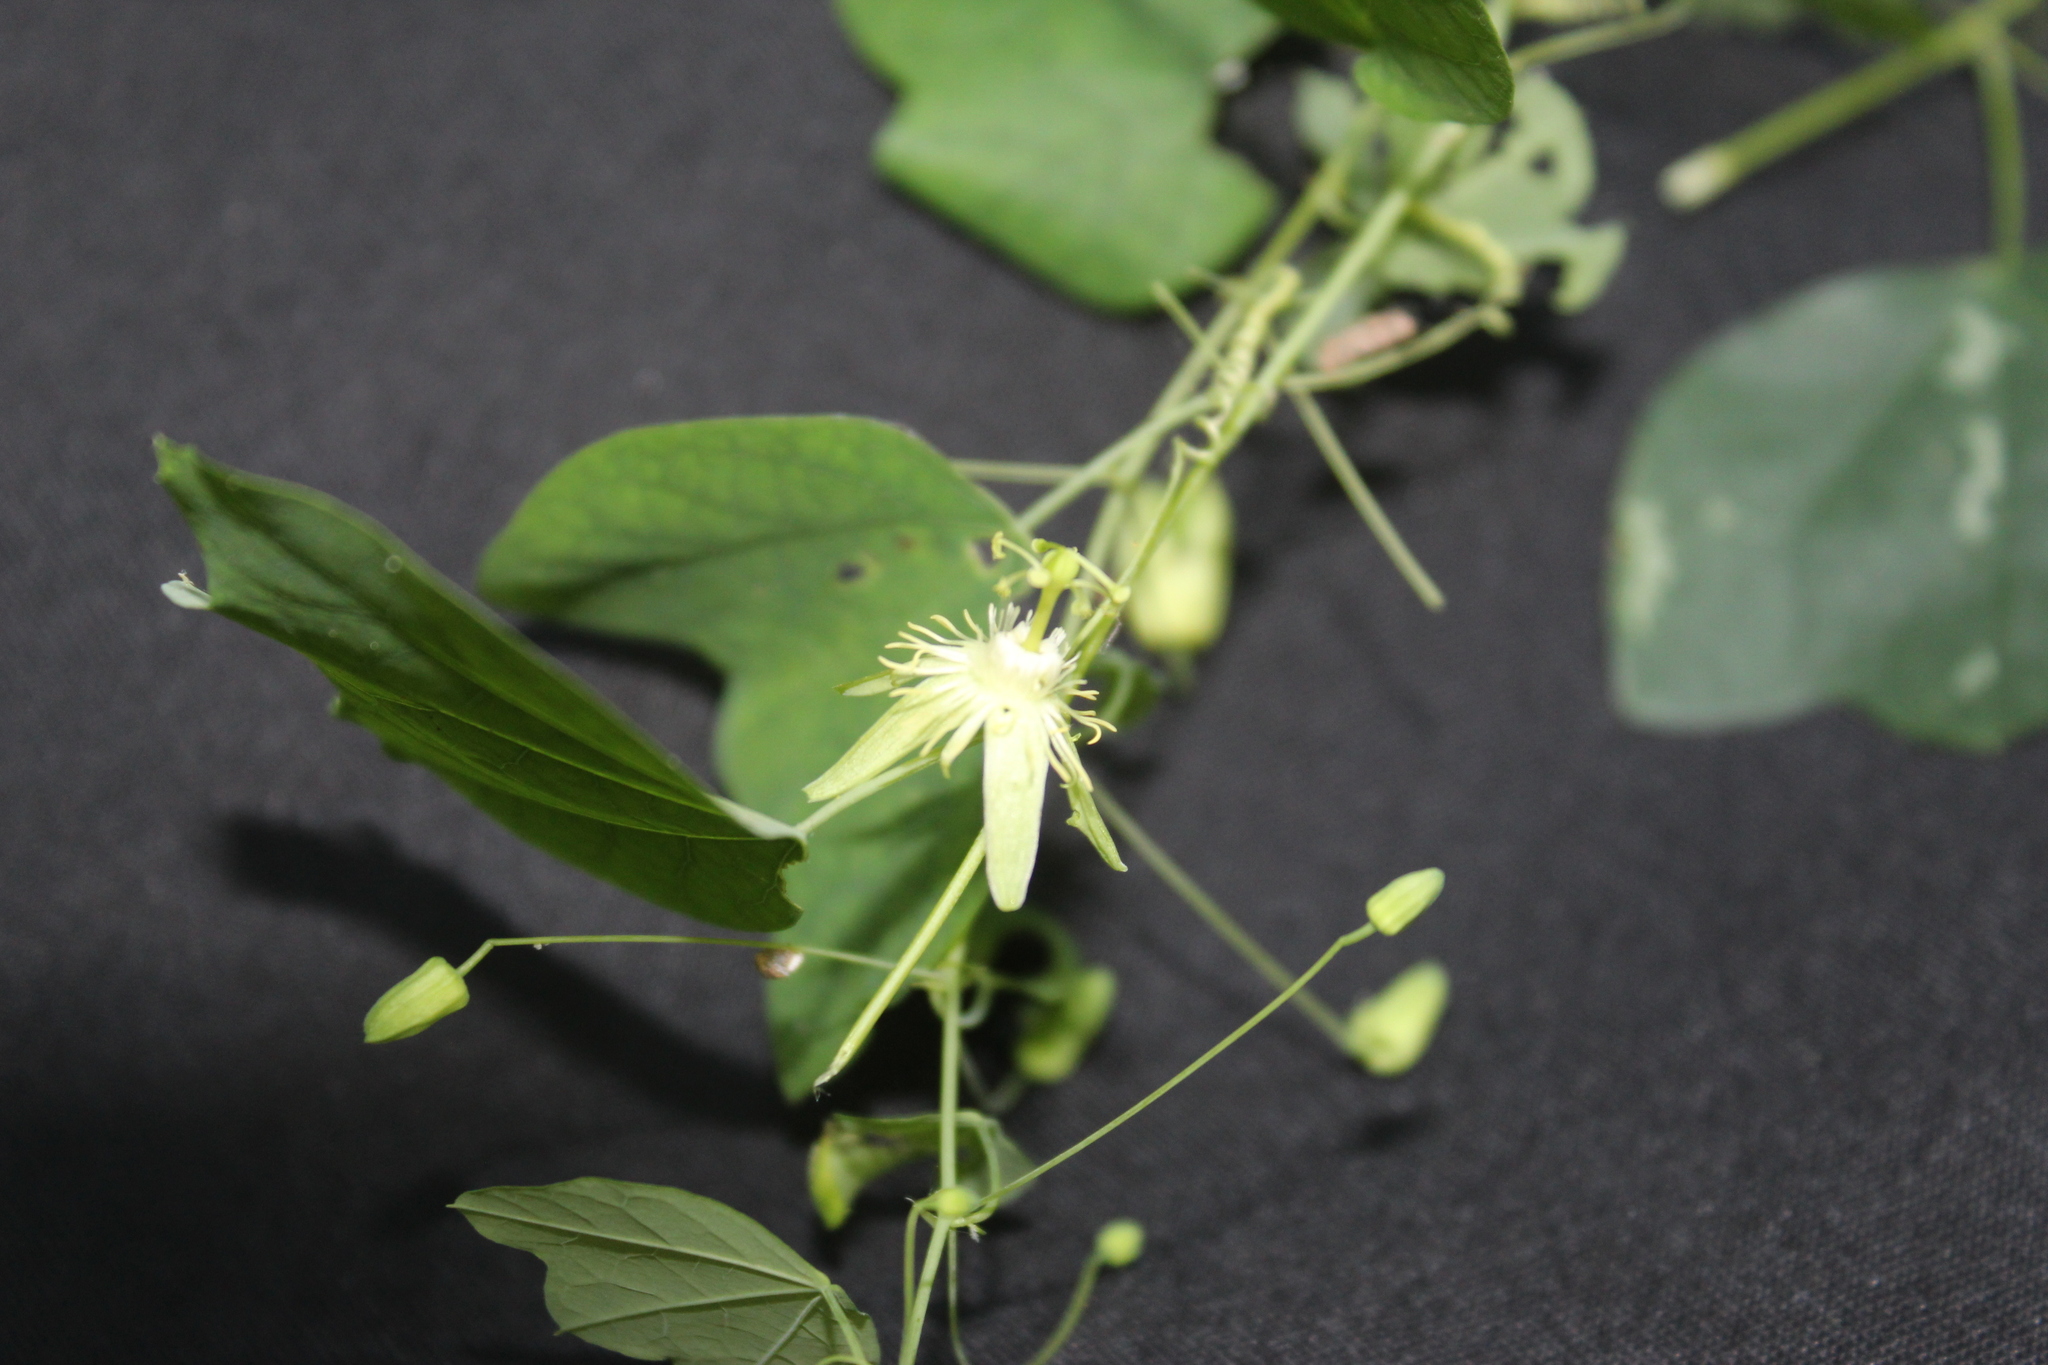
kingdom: Plantae
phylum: Tracheophyta
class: Magnoliopsida
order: Malpighiales
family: Passifloraceae
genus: Passiflora
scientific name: Passiflora filipes
